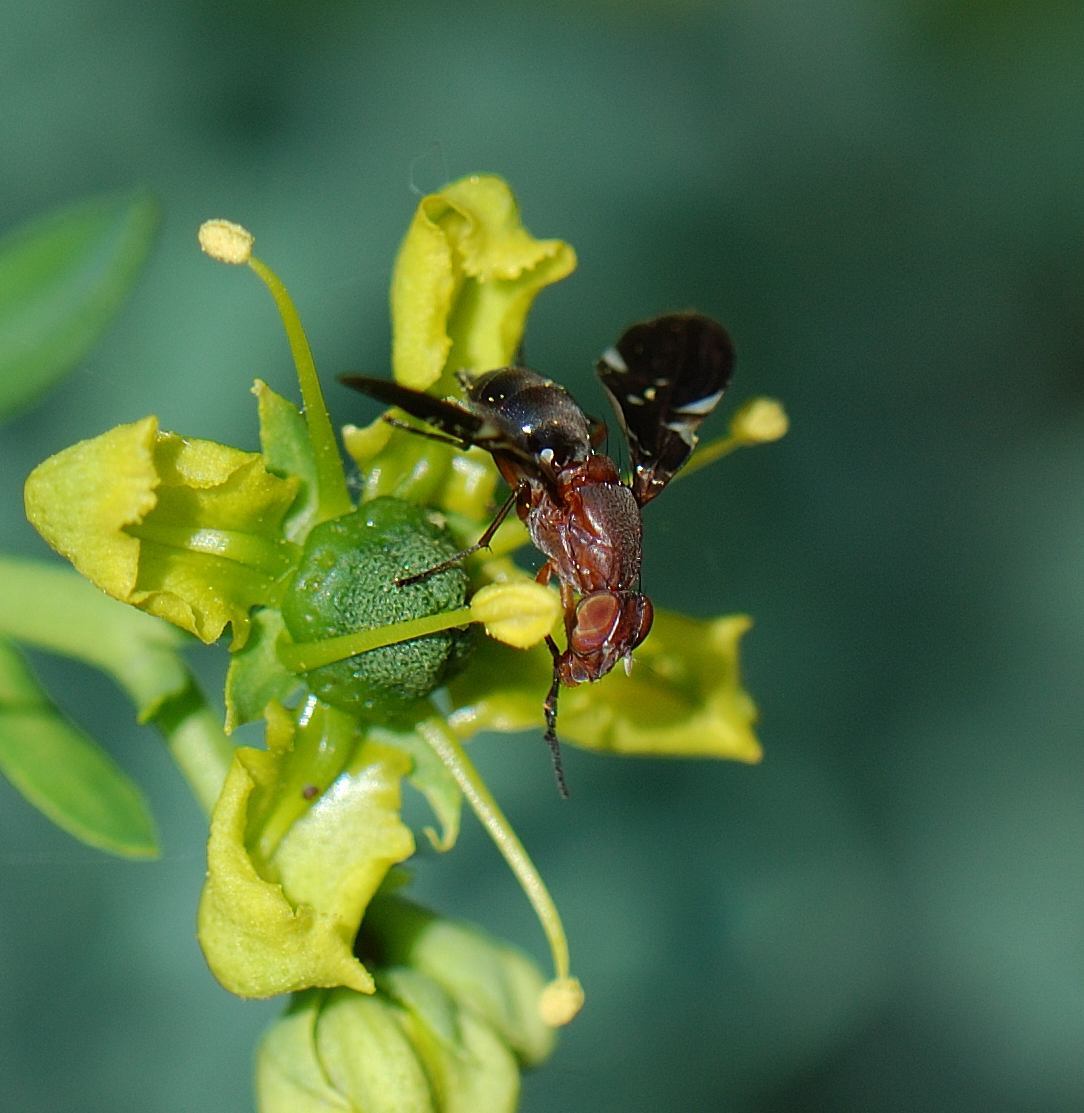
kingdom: Animalia
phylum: Arthropoda
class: Insecta
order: Diptera
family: Ulidiidae
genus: Delphinia
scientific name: Delphinia picta
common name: Common picture-winged fly
